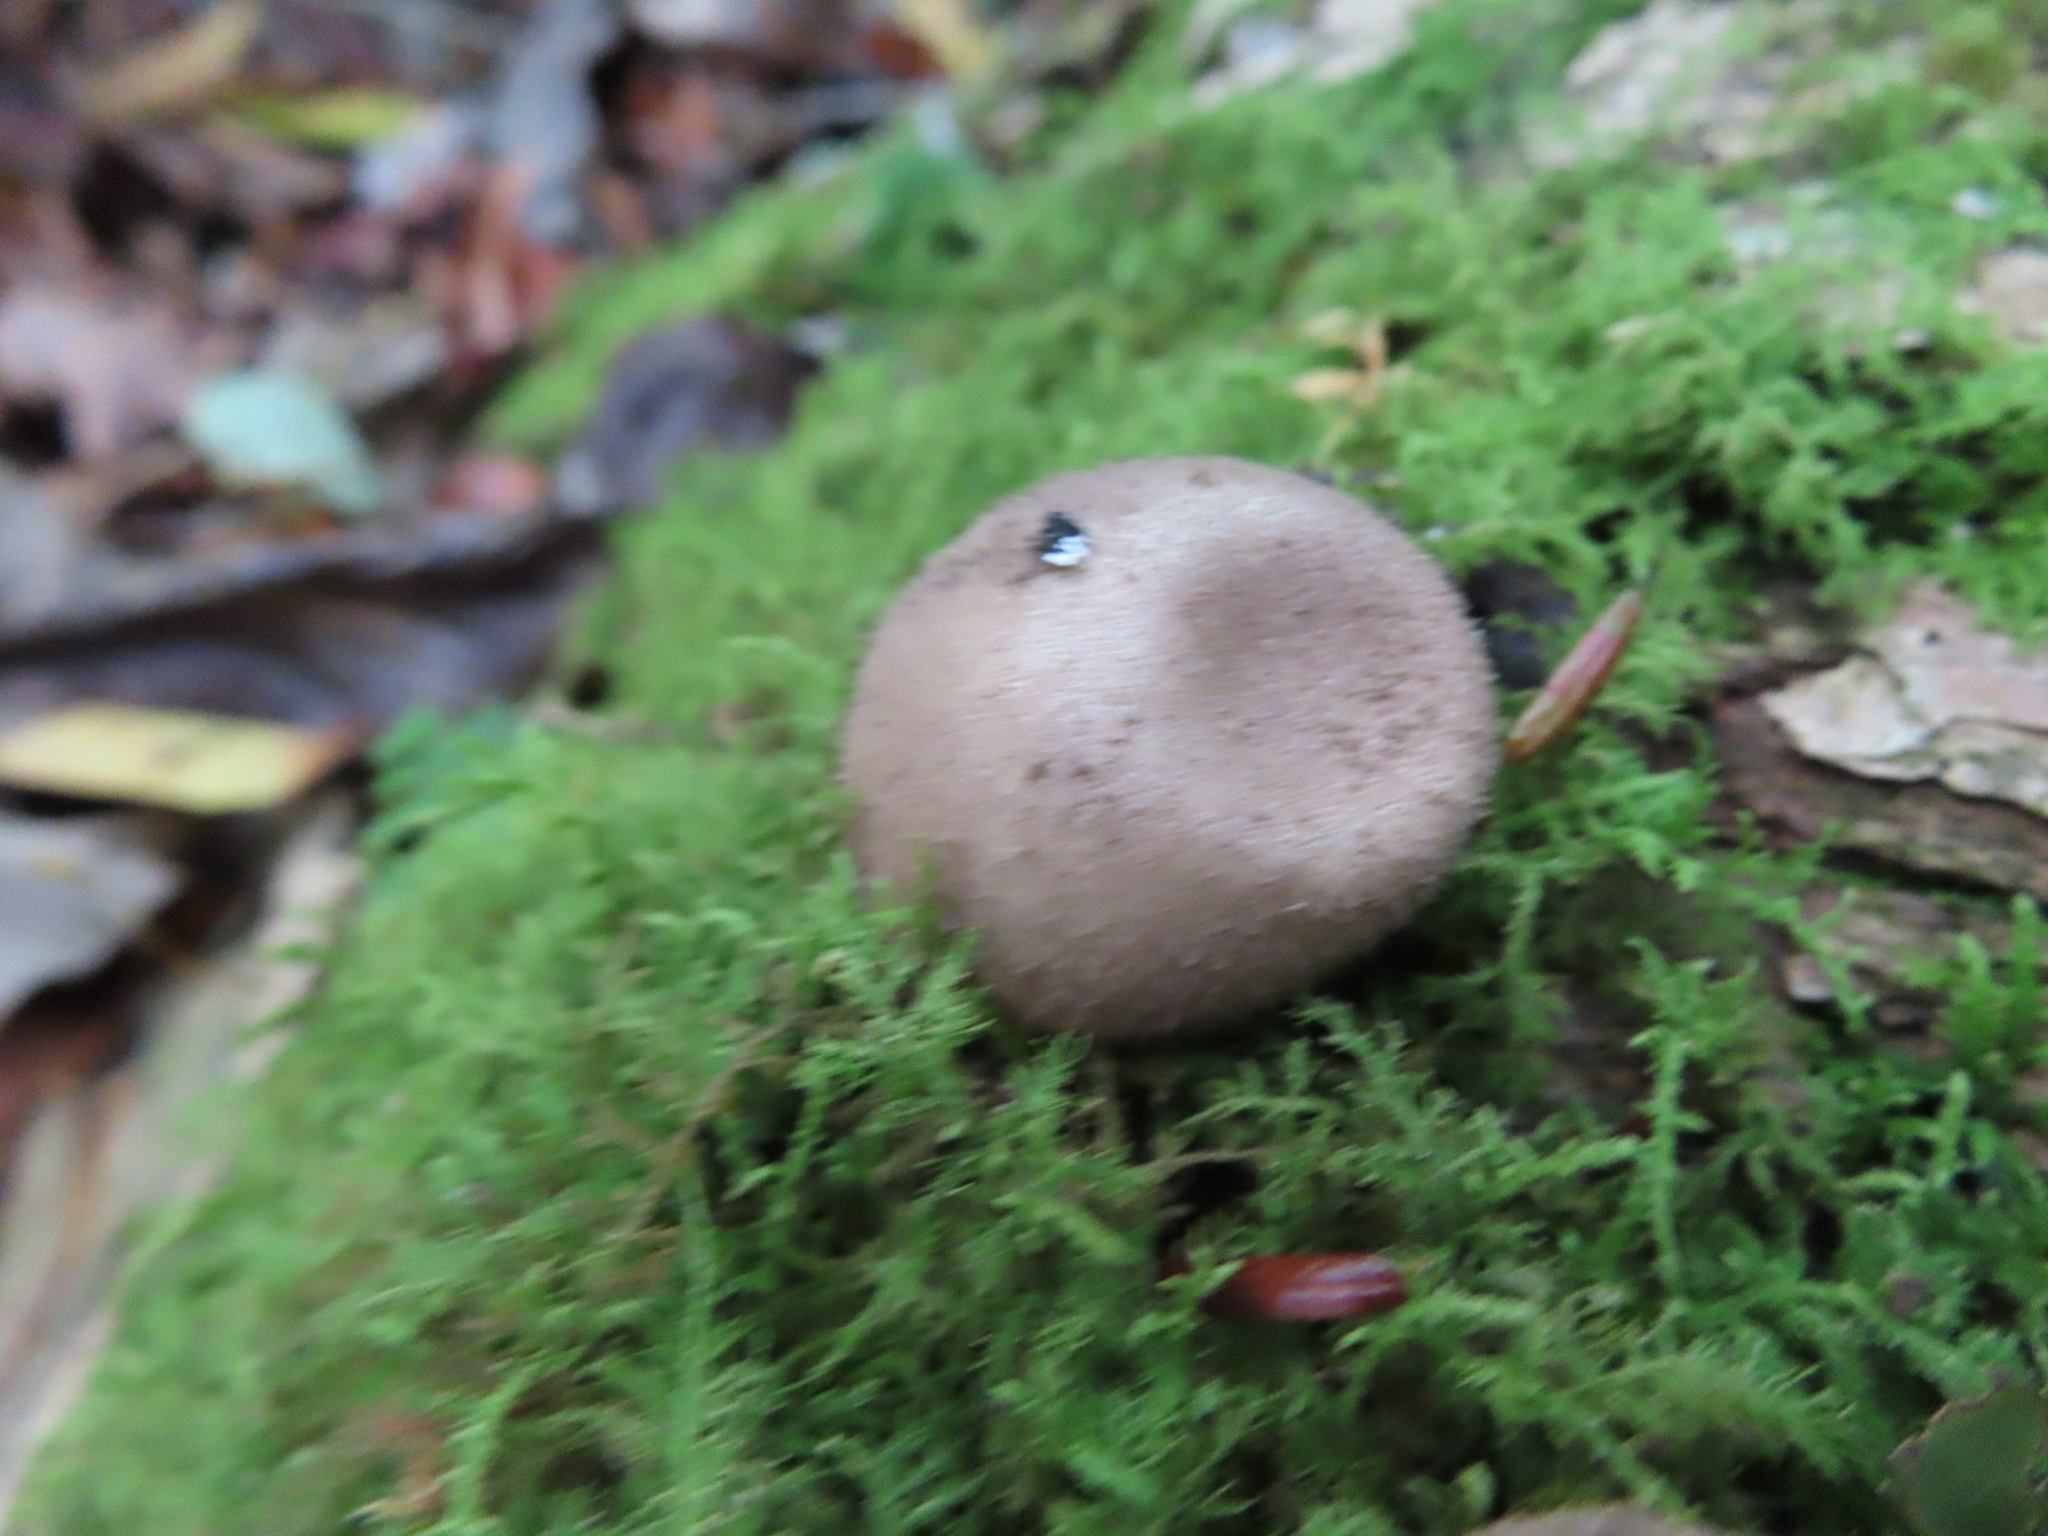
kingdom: Fungi
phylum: Basidiomycota
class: Agaricomycetes
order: Agaricales
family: Lycoperdaceae
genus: Apioperdon
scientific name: Apioperdon pyriforme
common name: Pear-shaped puffball
